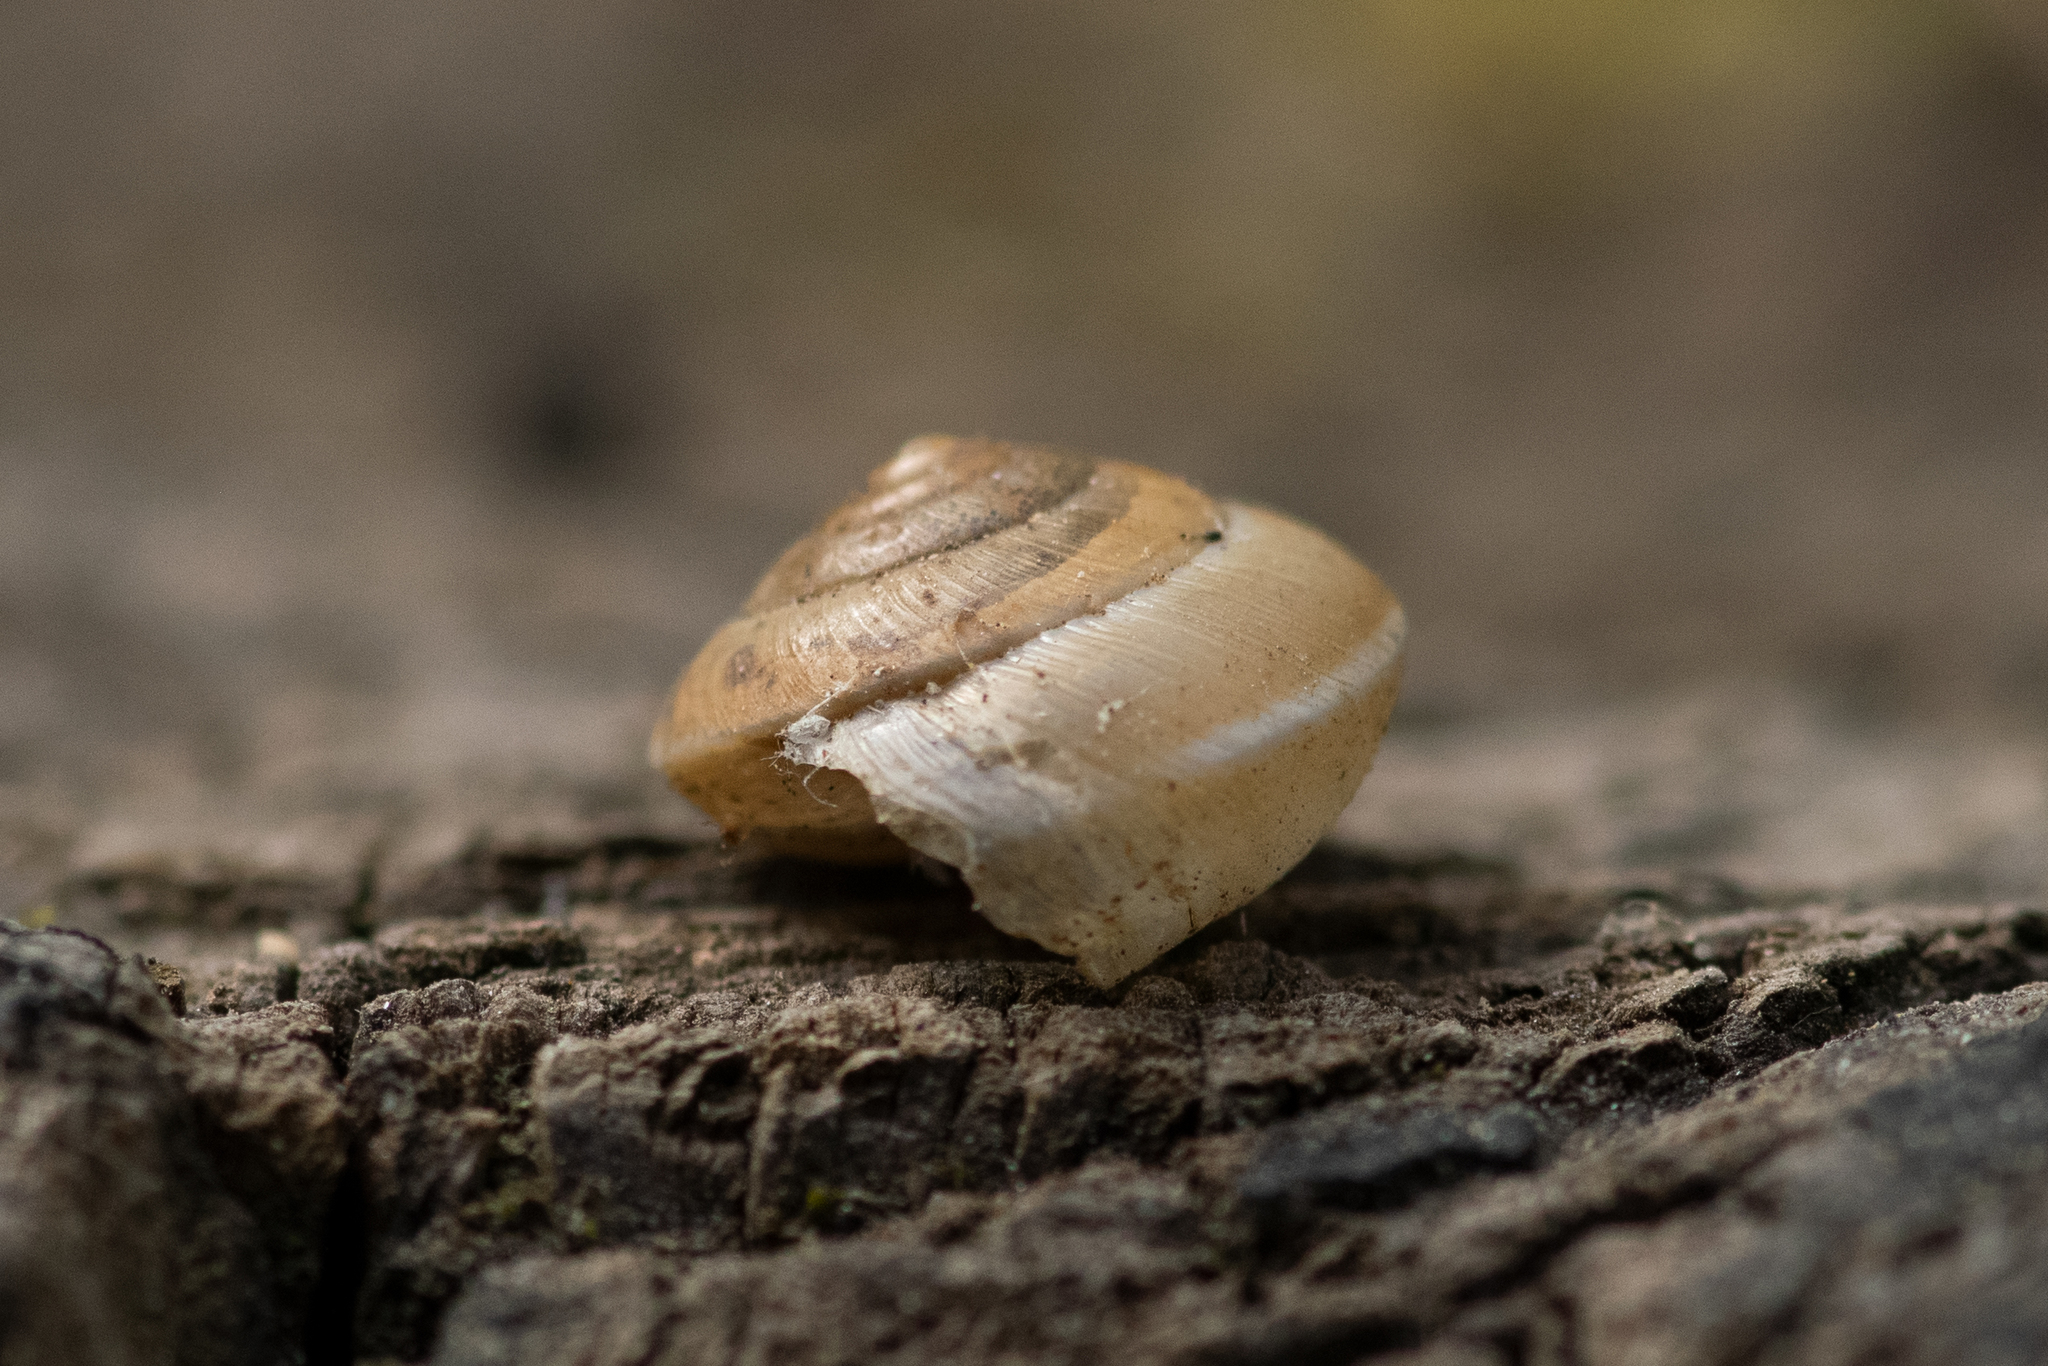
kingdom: Animalia
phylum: Mollusca
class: Gastropoda
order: Stylommatophora
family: Hygromiidae
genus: Hygromia
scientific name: Hygromia cinctella
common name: Girdled snail
